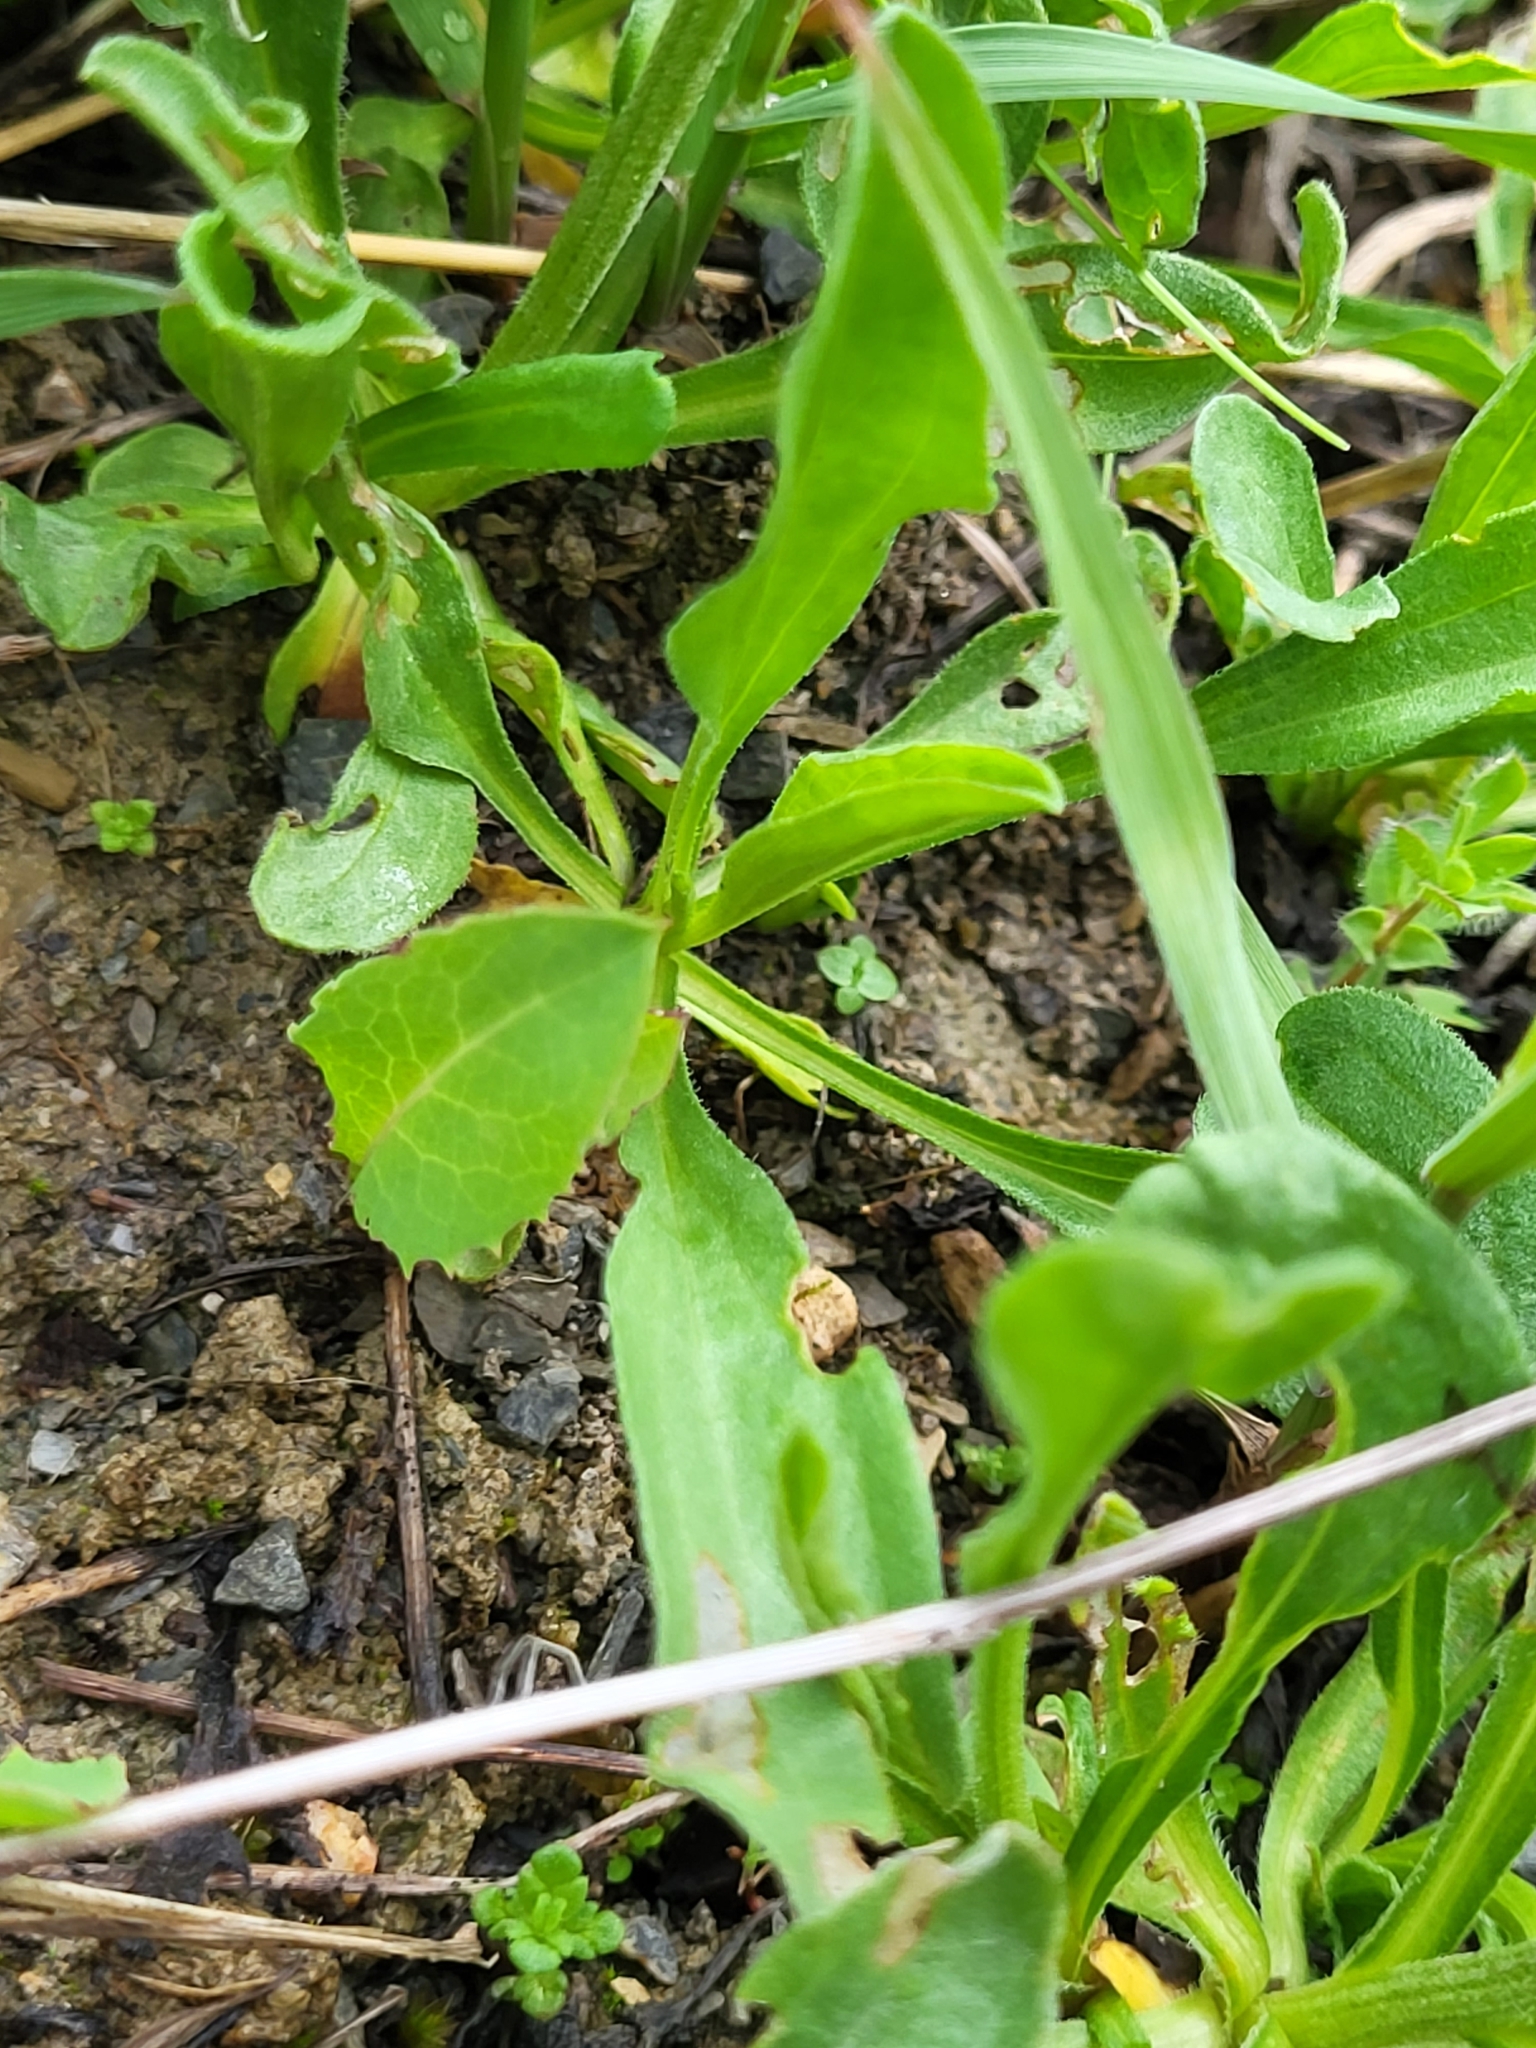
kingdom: Plantae
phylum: Tracheophyta
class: Magnoliopsida
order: Asterales
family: Asteraceae
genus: Aster
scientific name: Aster alpinus
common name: Alpine aster
